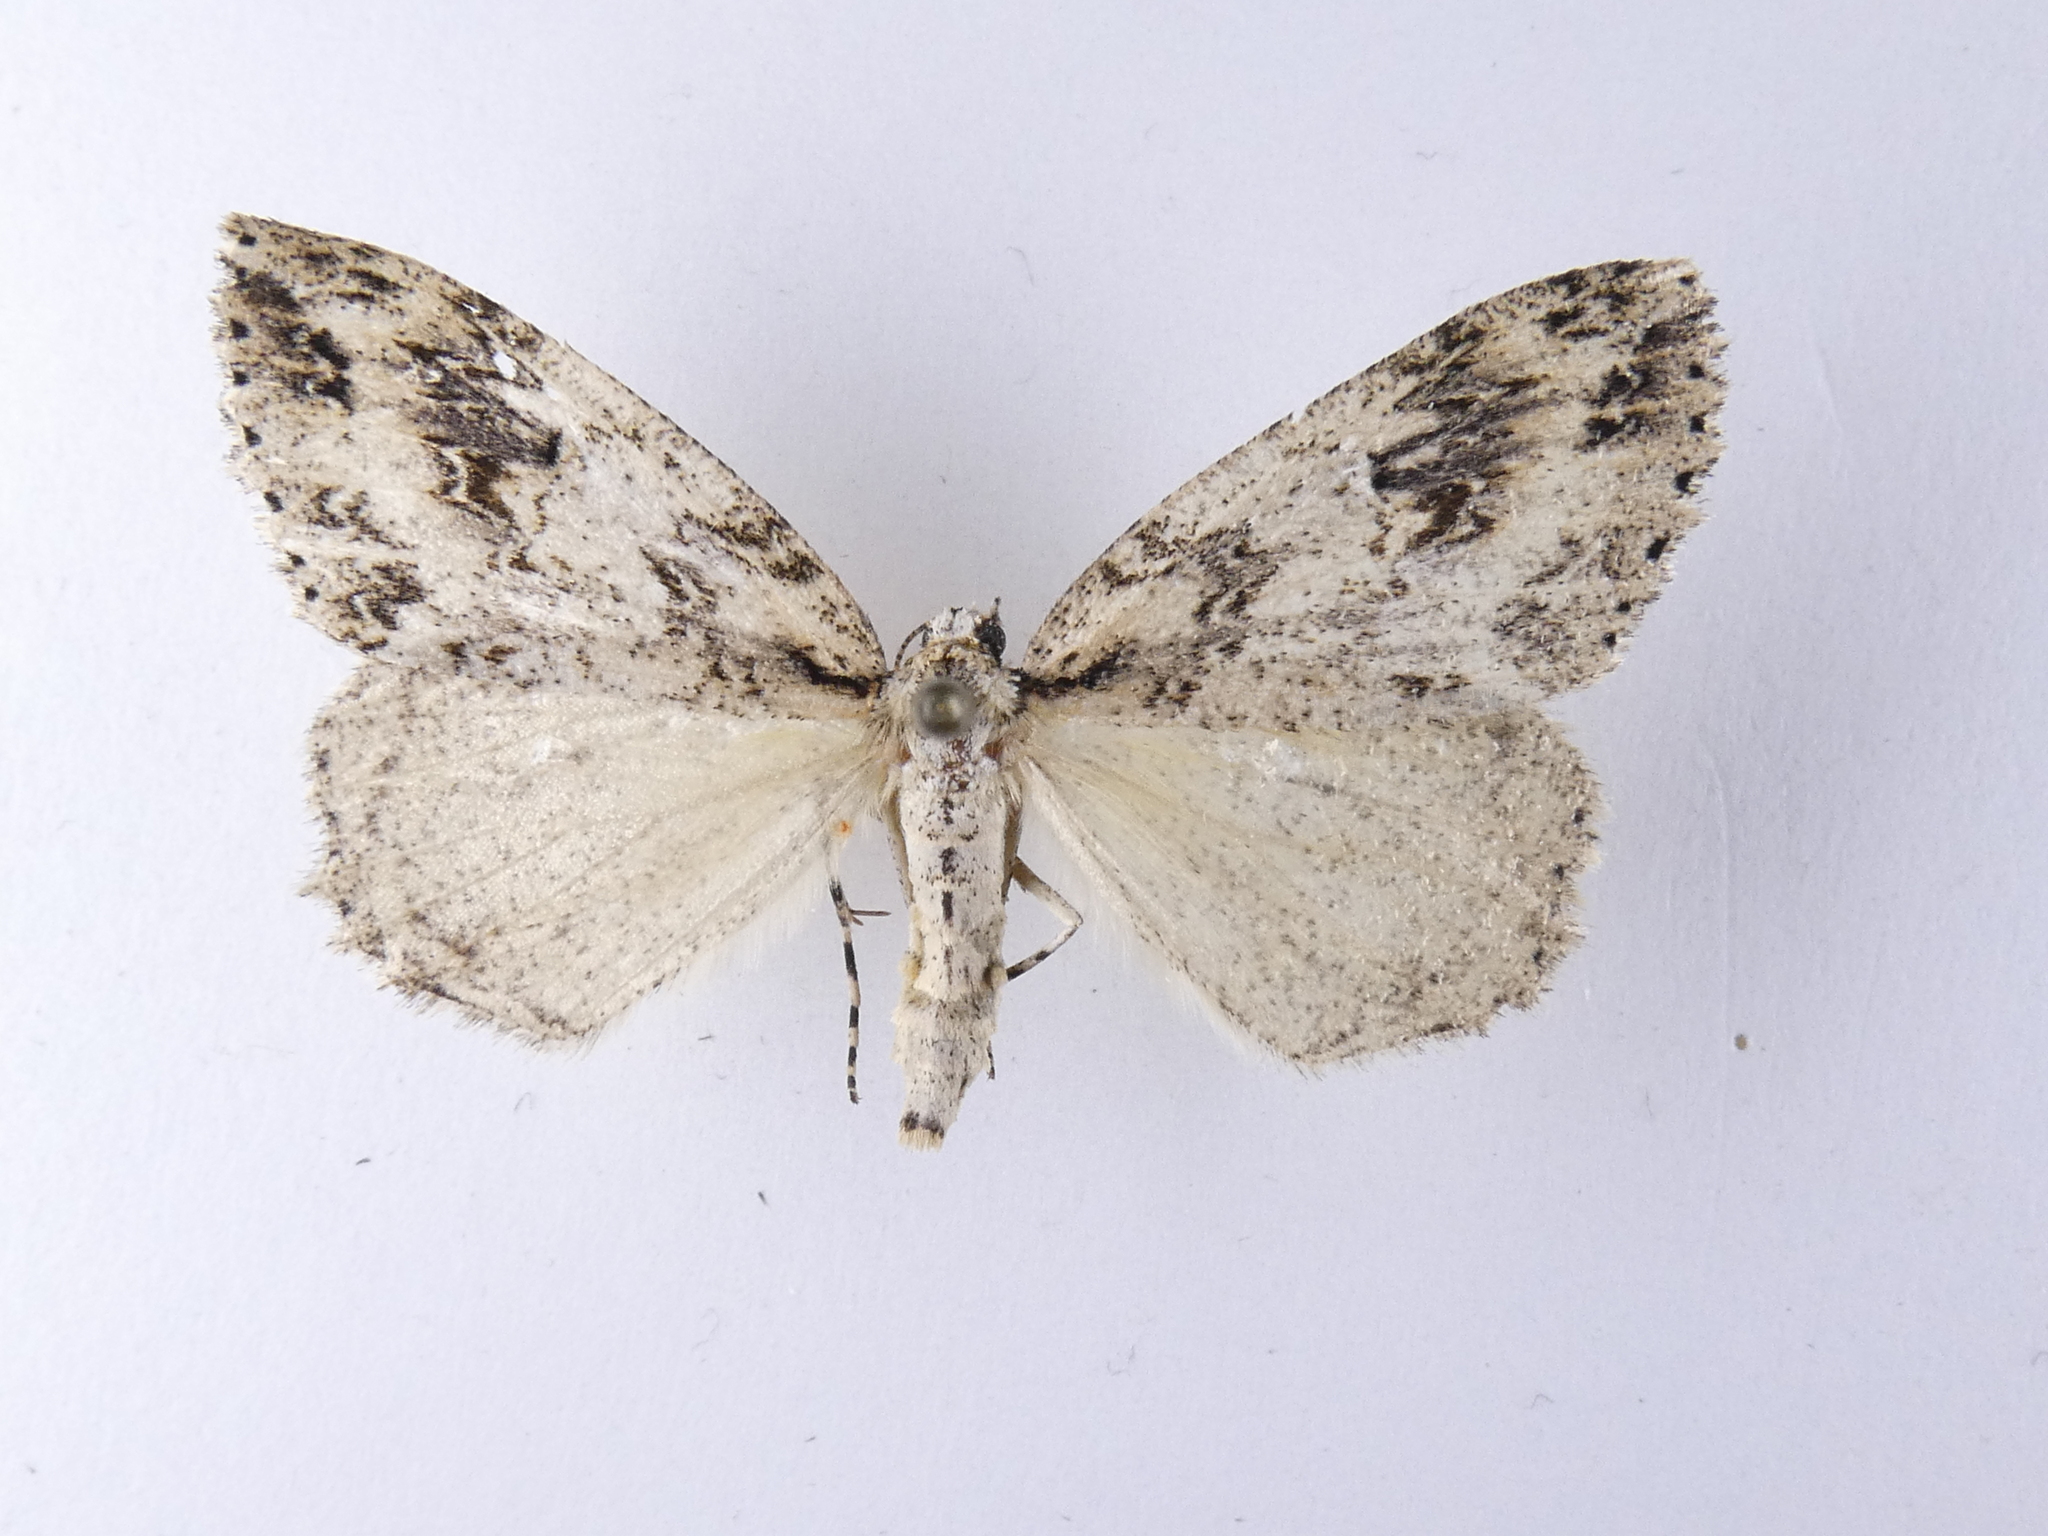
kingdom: Animalia
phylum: Arthropoda
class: Insecta
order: Lepidoptera
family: Geometridae
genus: Pseudocoremia
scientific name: Pseudocoremia rudisata
